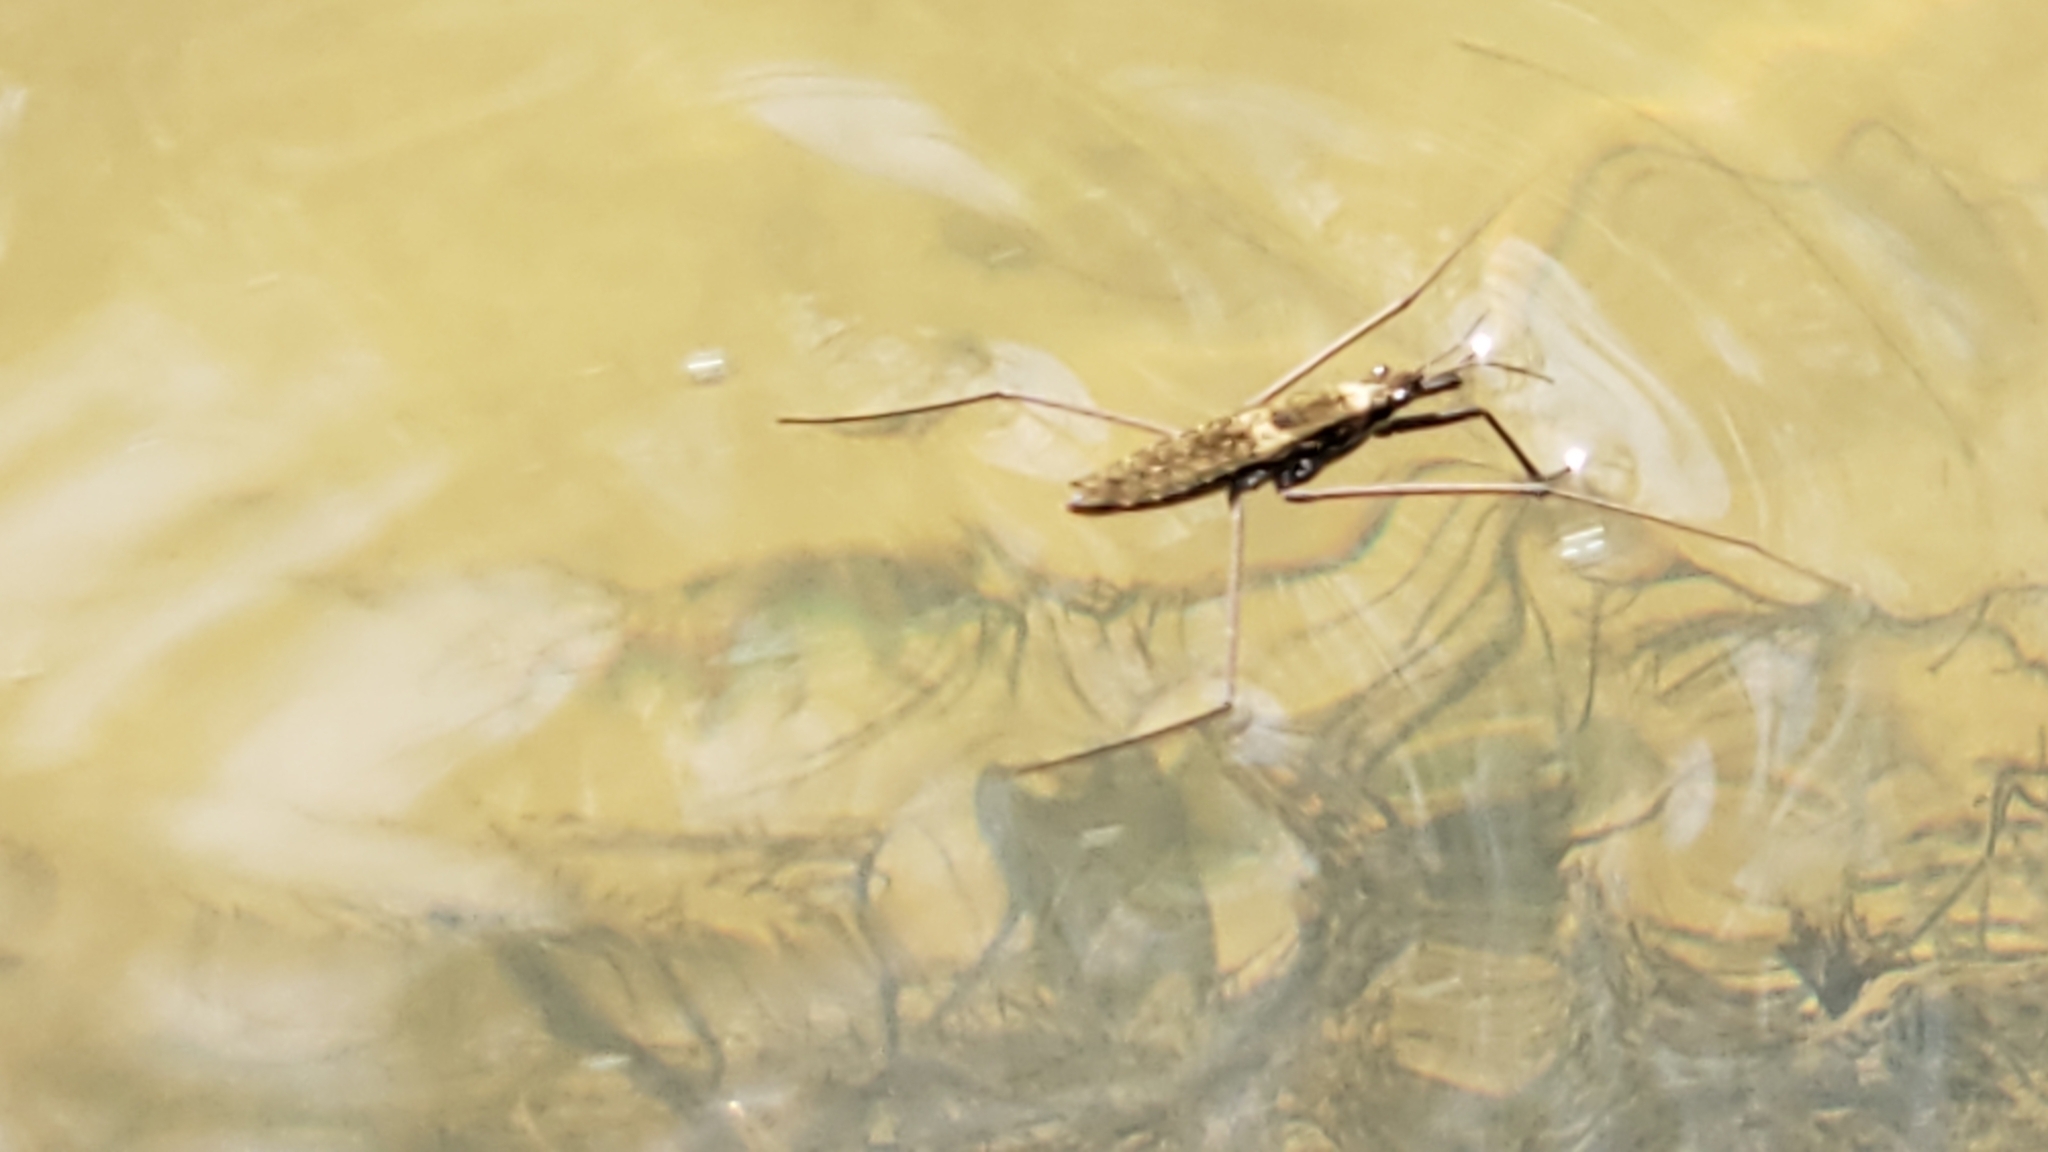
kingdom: Animalia
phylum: Arthropoda
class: Insecta
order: Hemiptera
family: Gerridae
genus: Aquarius
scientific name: Aquarius remigis
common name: Common water strider
